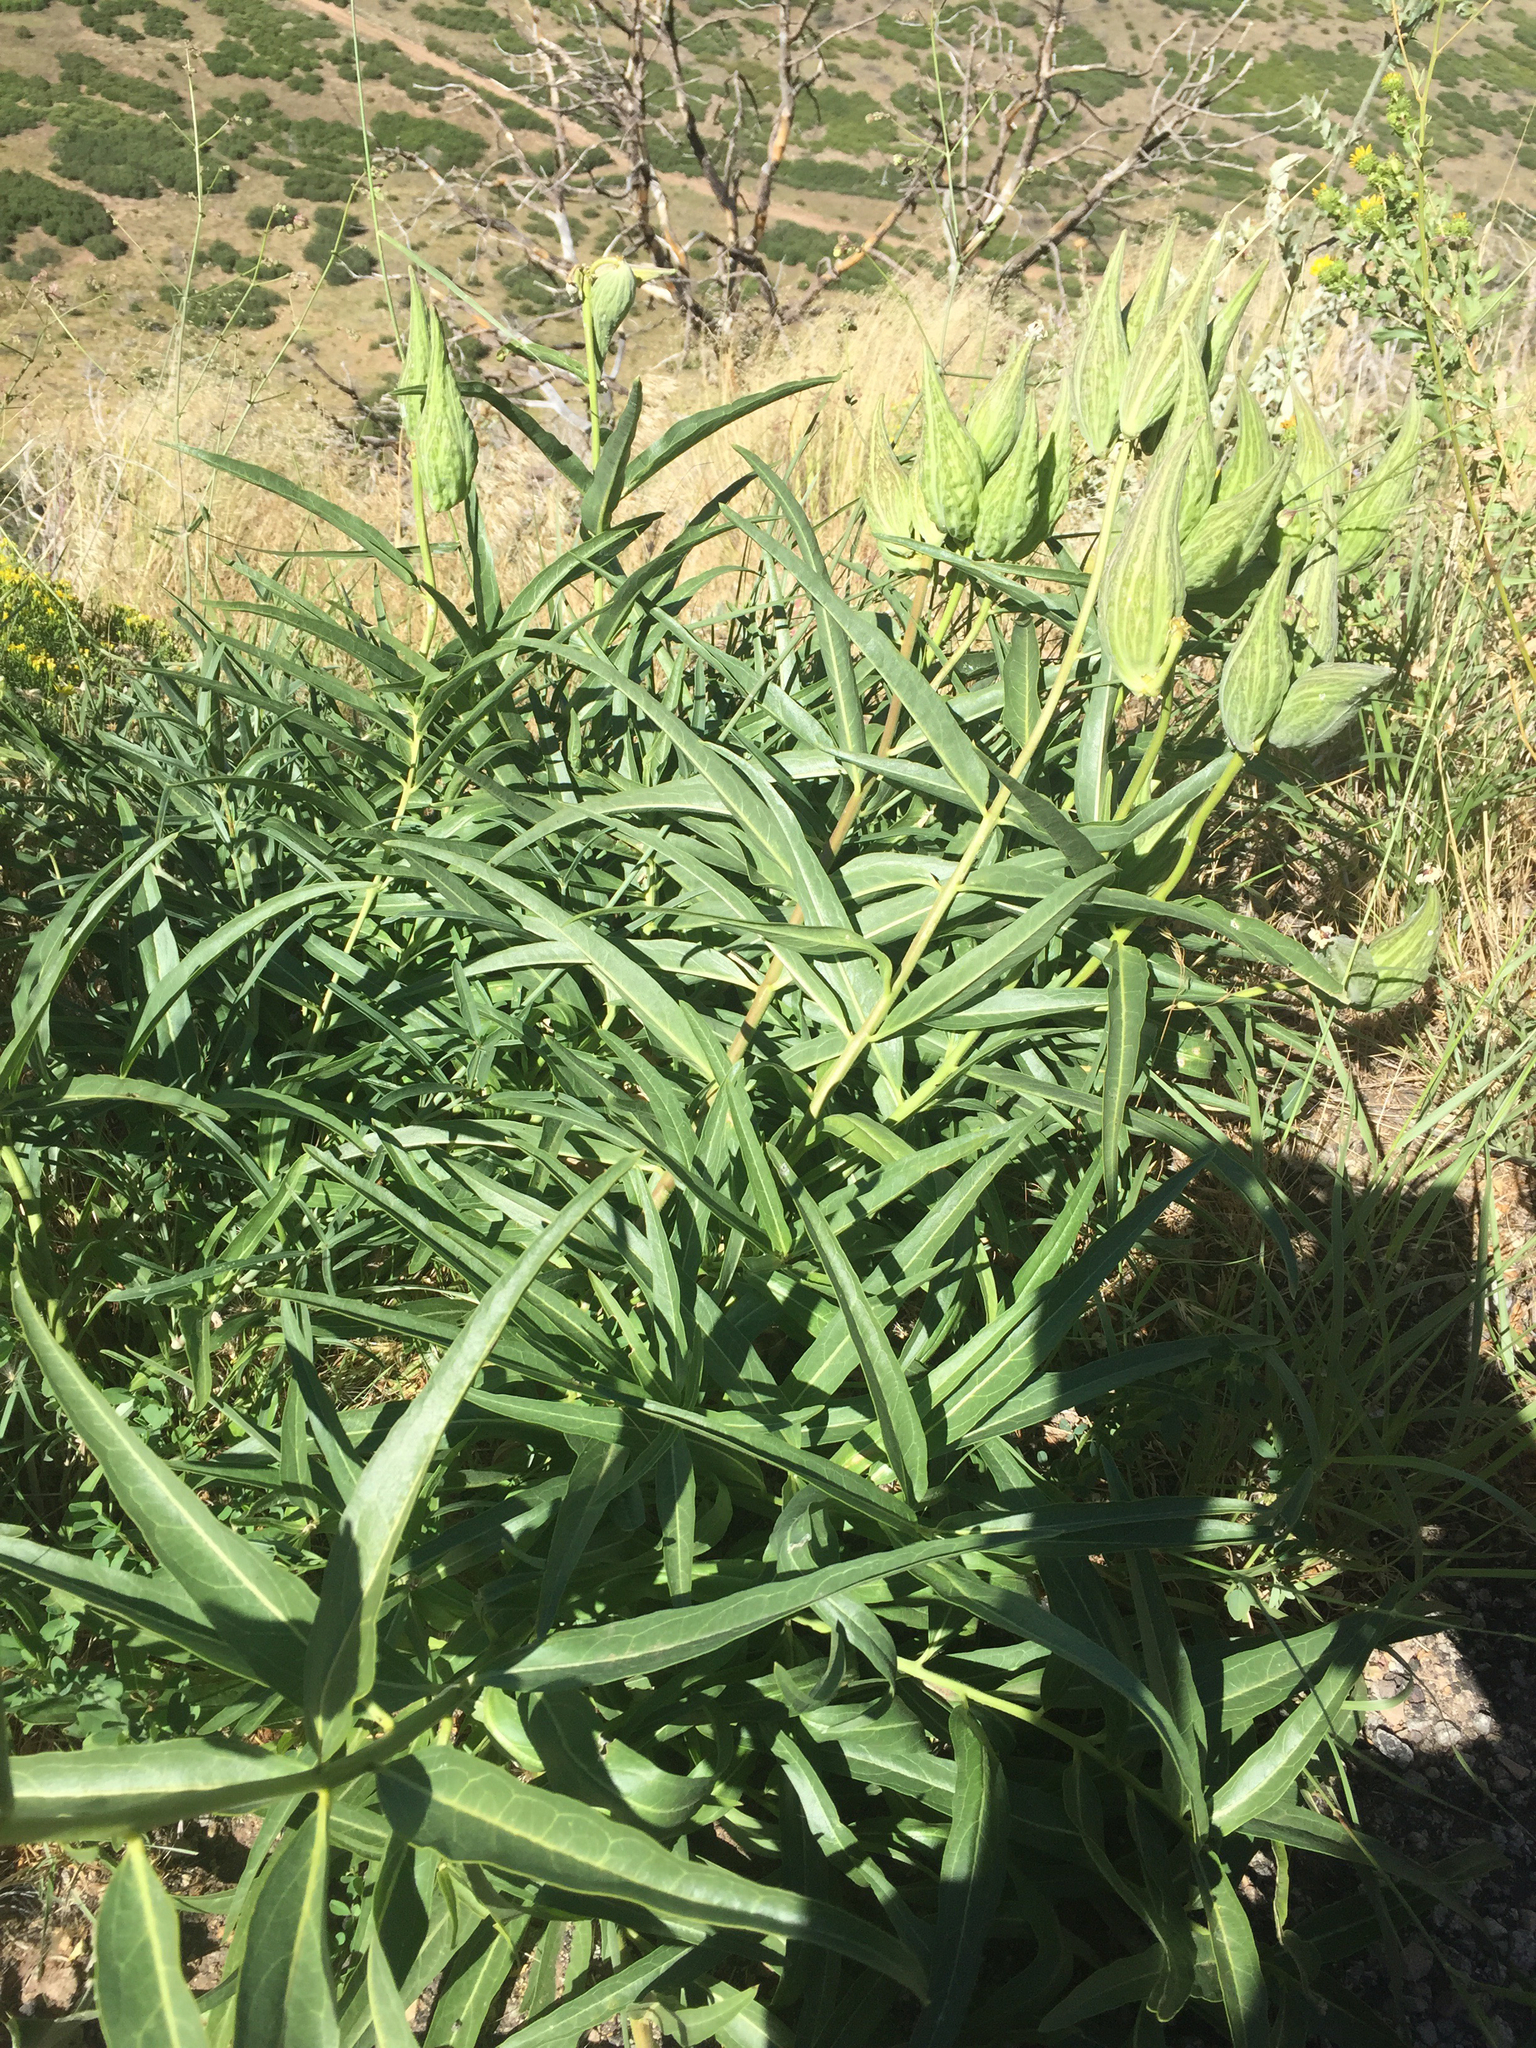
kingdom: Plantae
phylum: Tracheophyta
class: Magnoliopsida
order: Gentianales
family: Apocynaceae
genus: Asclepias
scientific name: Asclepias asperula
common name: Antelope horns
